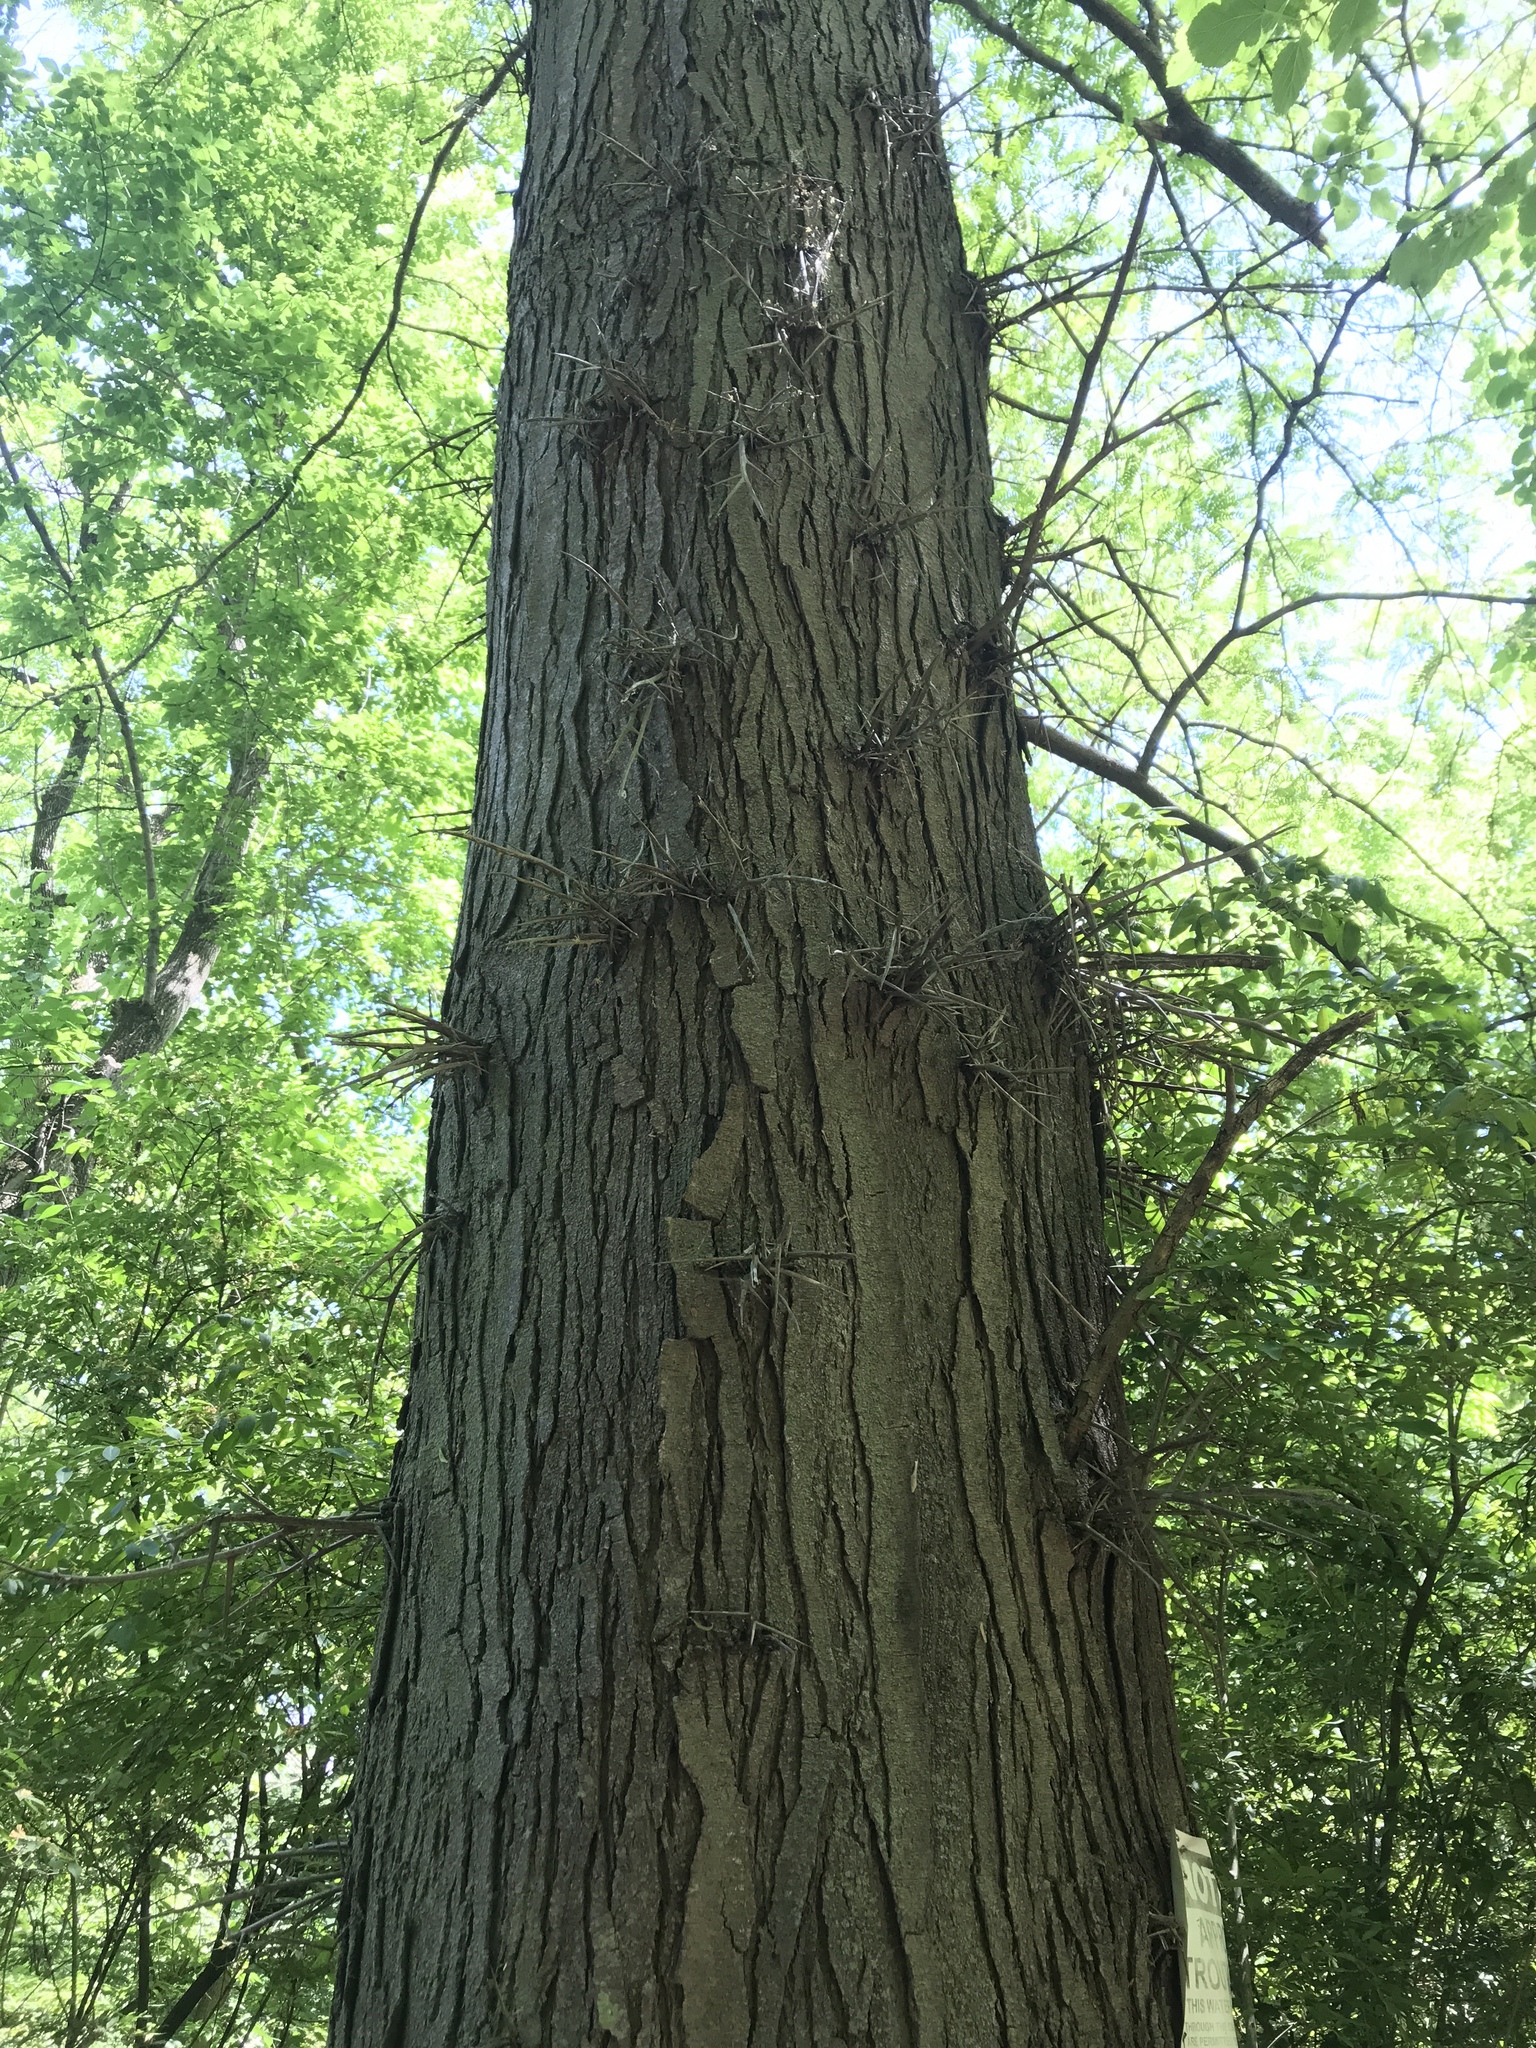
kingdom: Plantae
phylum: Tracheophyta
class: Magnoliopsida
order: Fabales
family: Fabaceae
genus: Gleditsia
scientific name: Gleditsia triacanthos
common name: Common honeylocust
